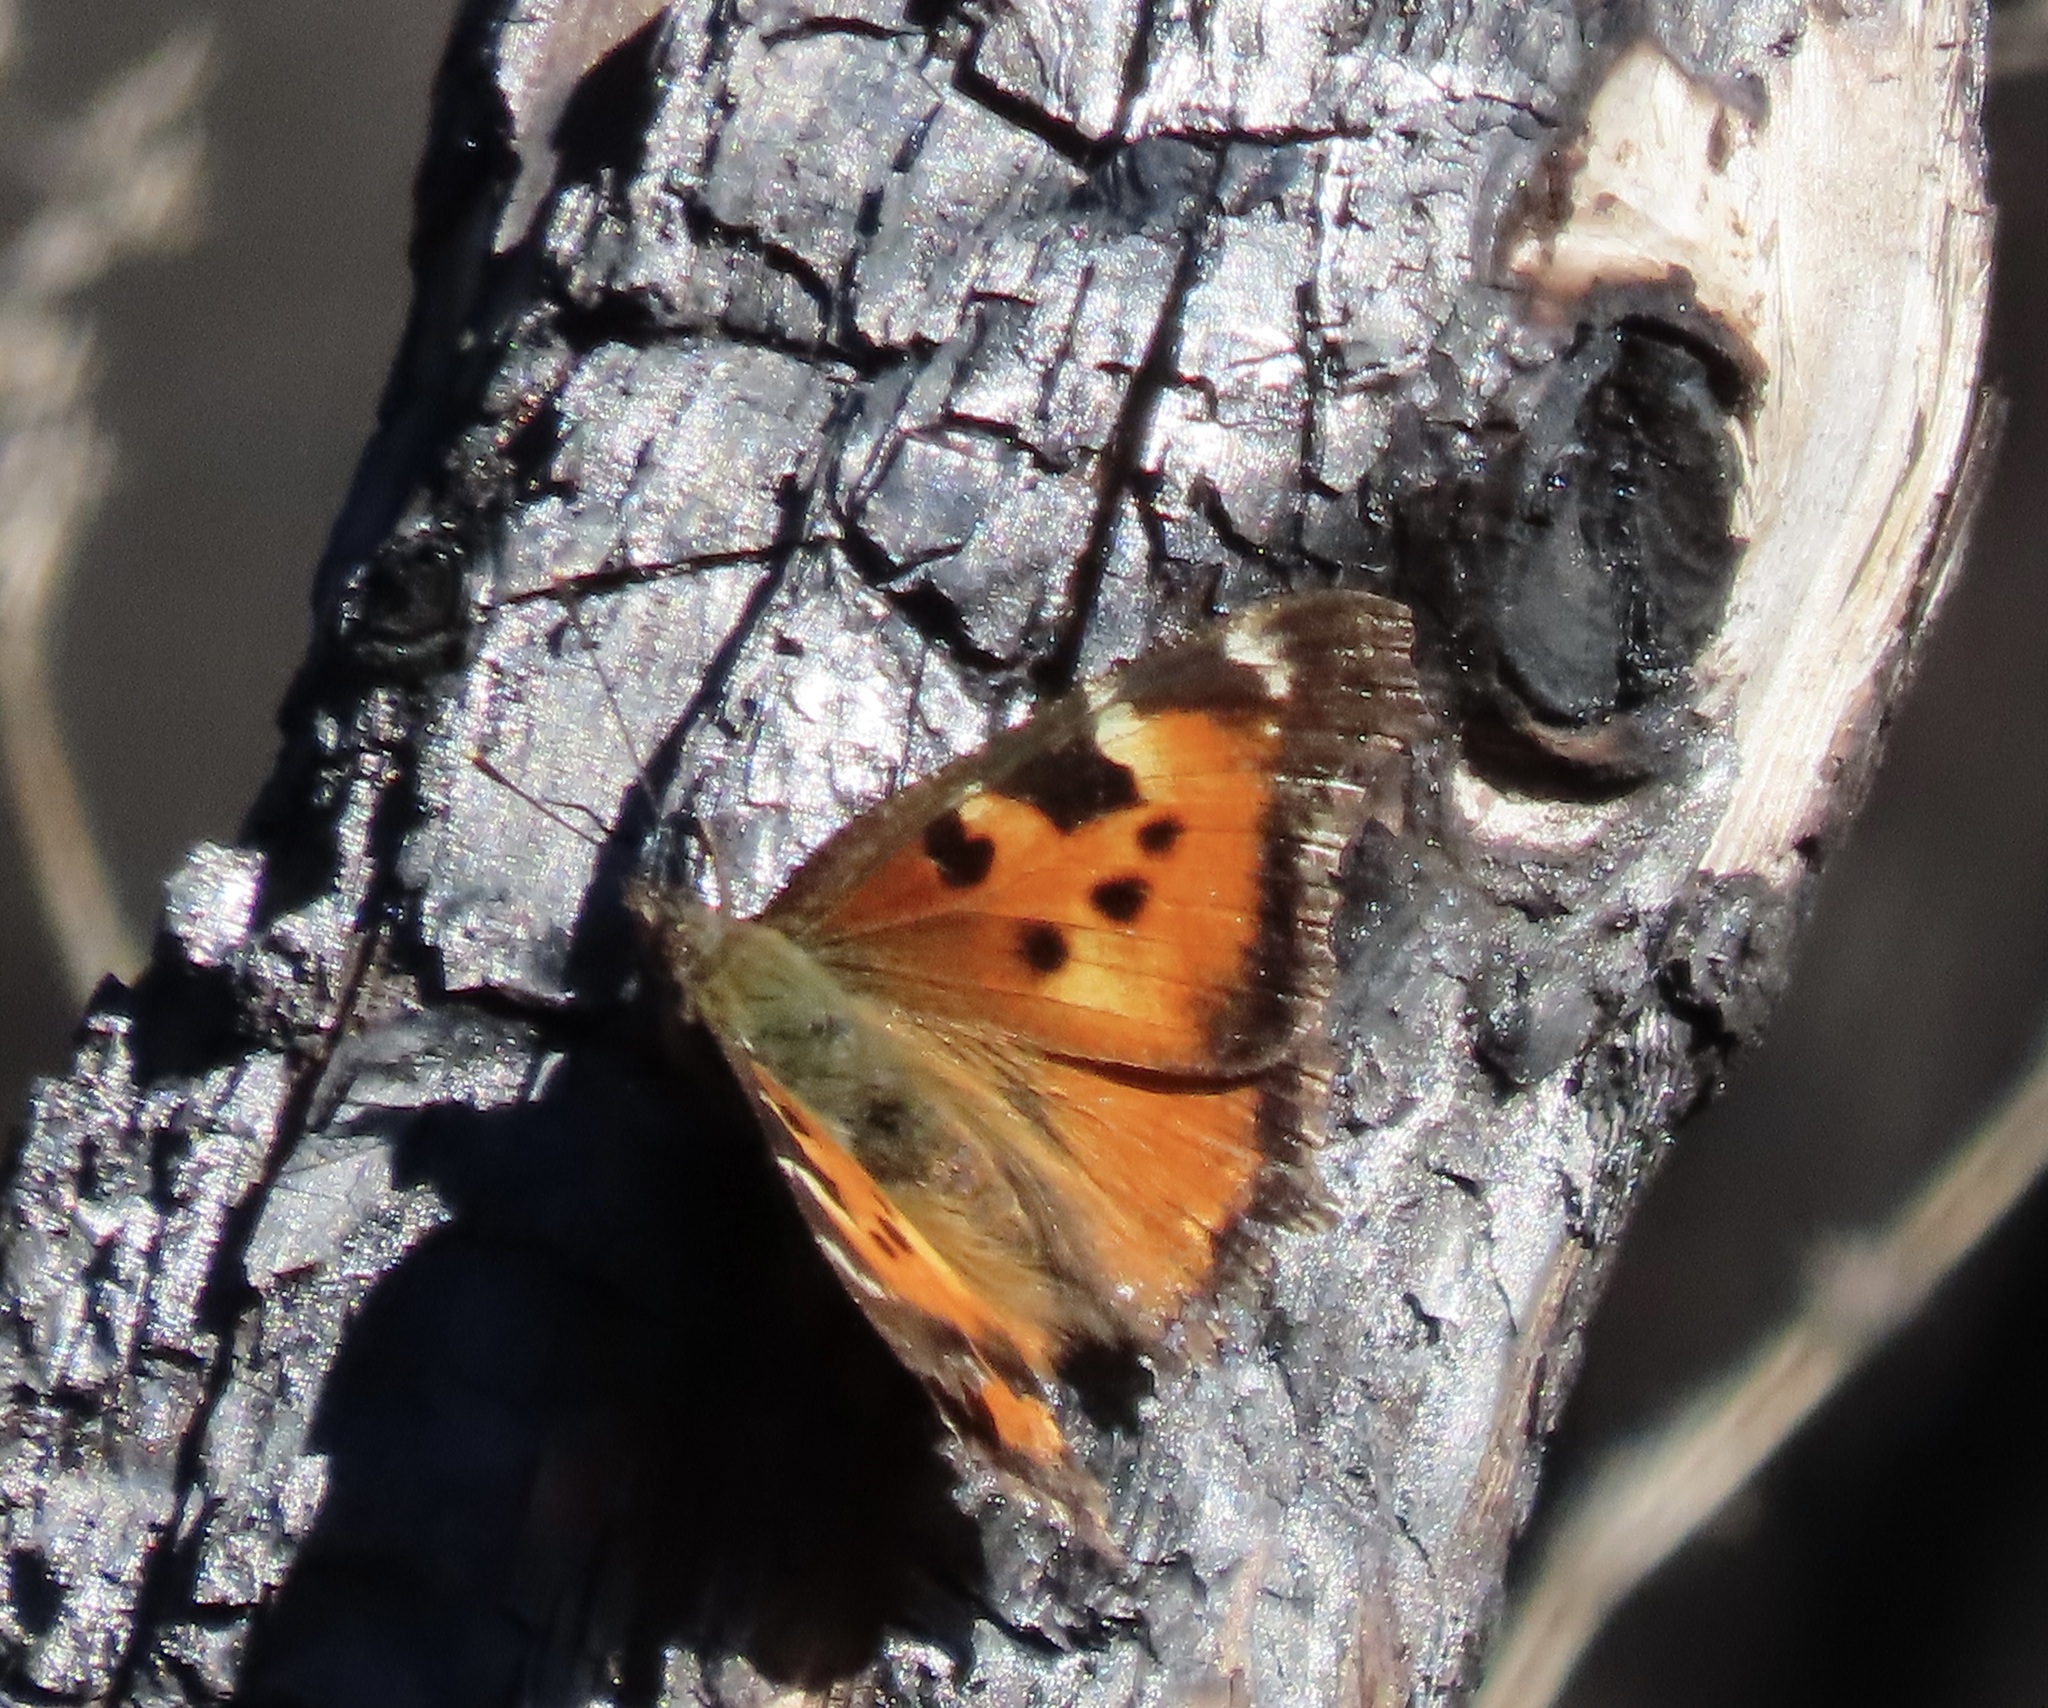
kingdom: Animalia
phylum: Arthropoda
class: Insecta
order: Lepidoptera
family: Nymphalidae
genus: Nymphalis
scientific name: Nymphalis californica
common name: California tortoiseshell
